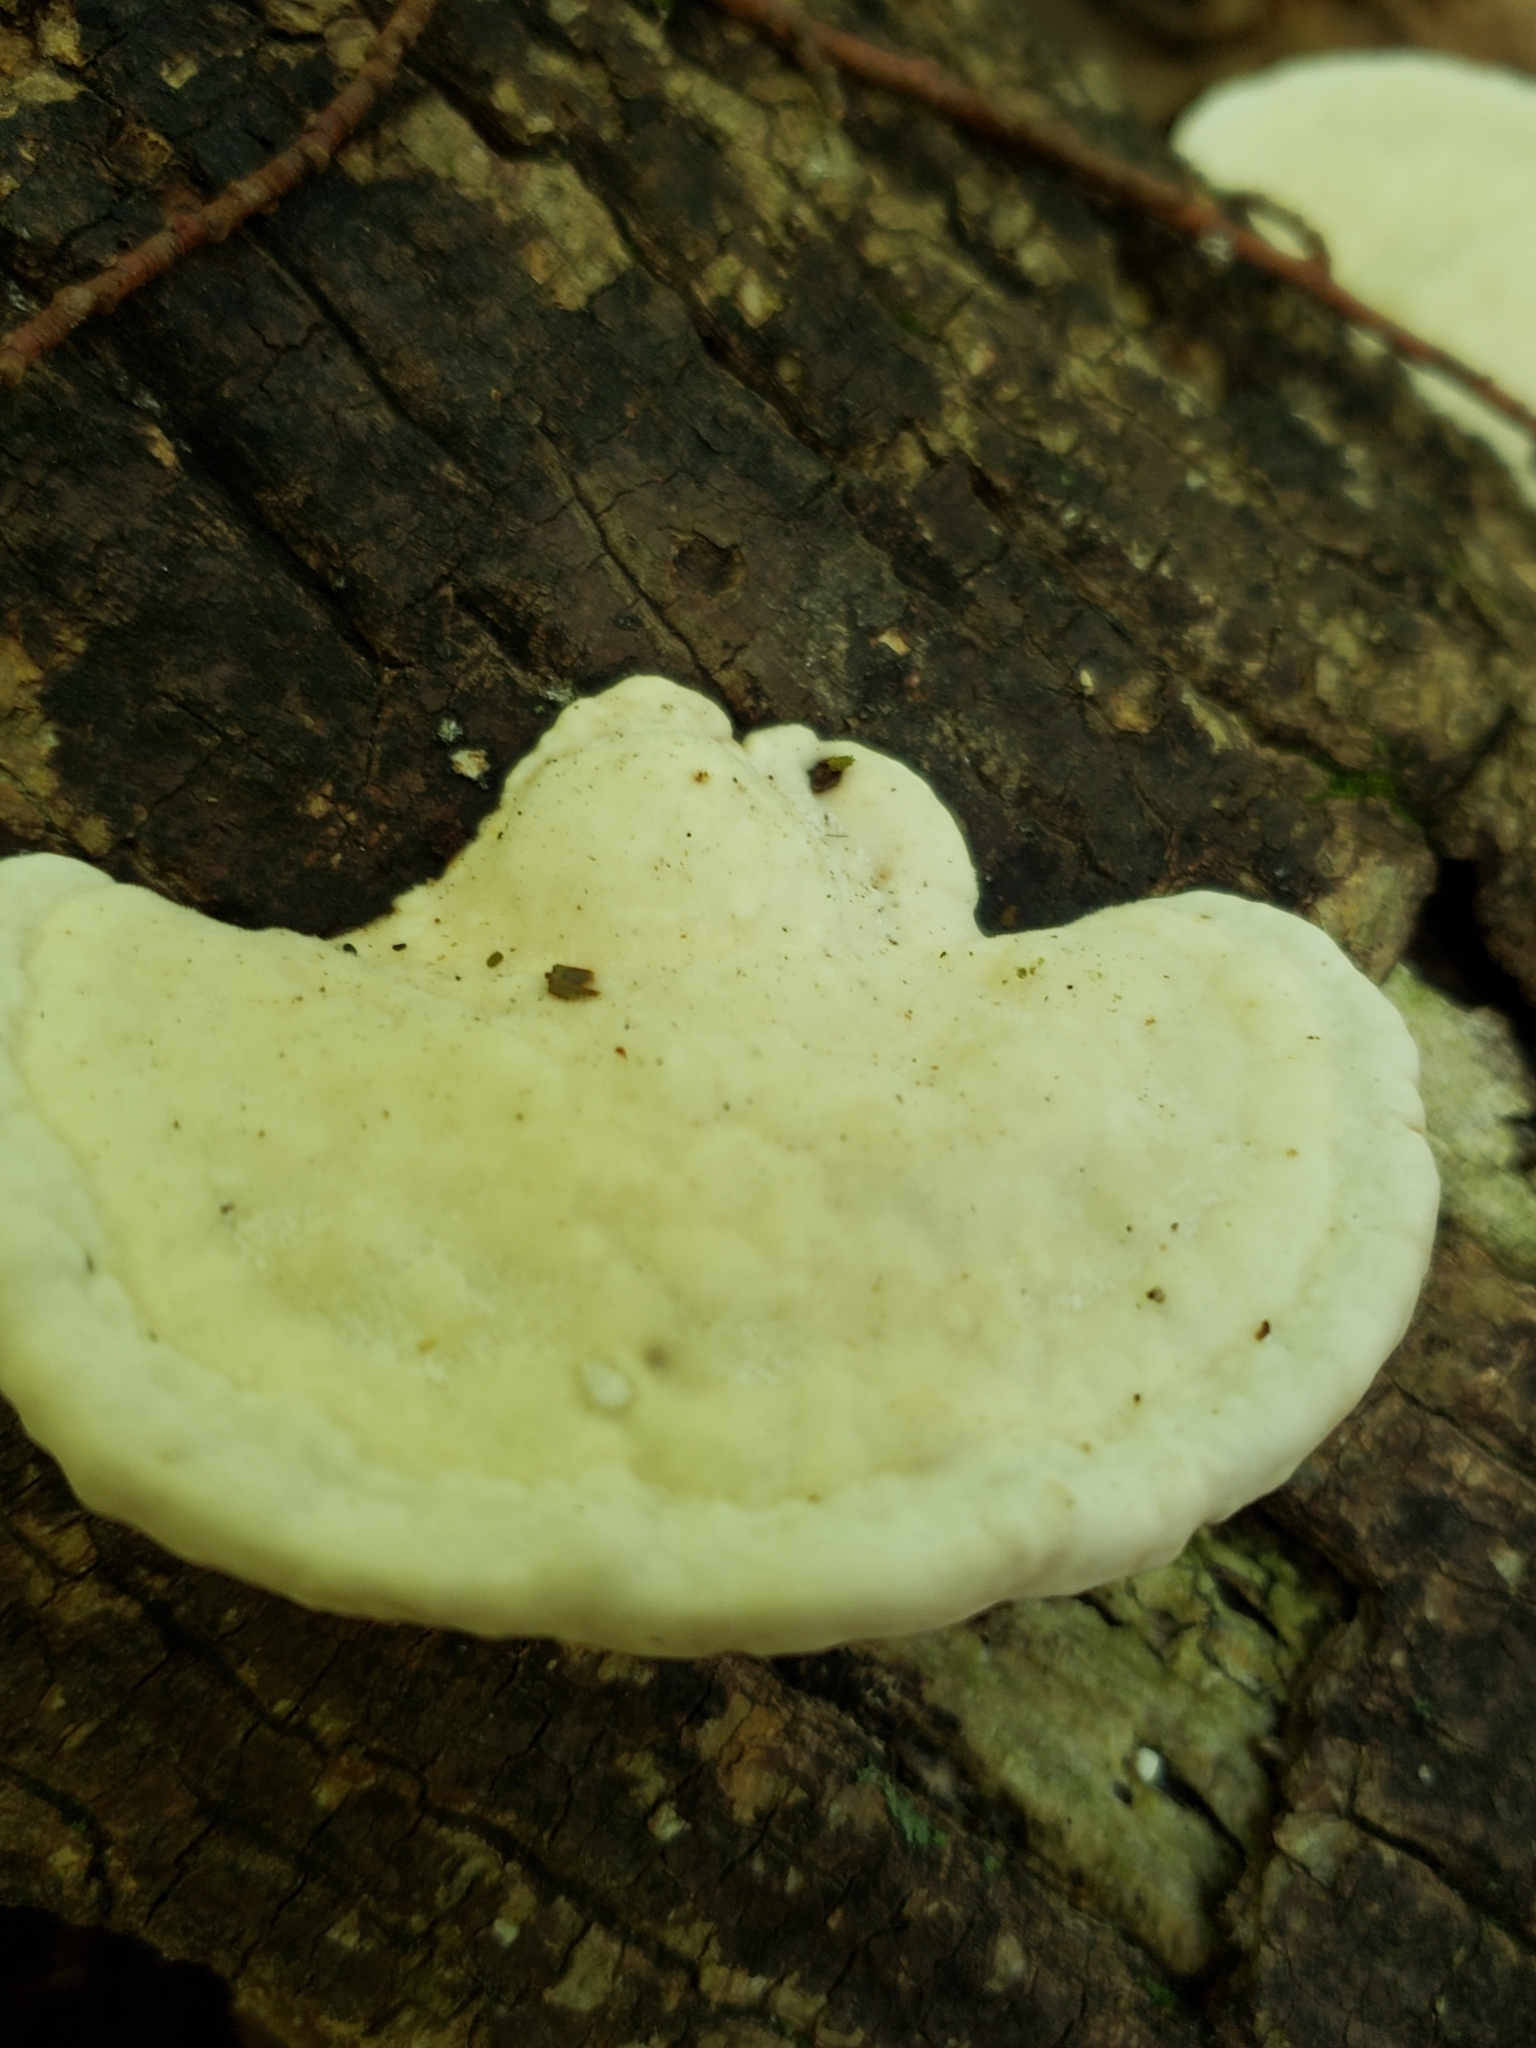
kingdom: Fungi
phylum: Basidiomycota
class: Agaricomycetes
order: Polyporales
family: Polyporaceae
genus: Trametes
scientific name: Trametes gibbosa
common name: Lumpy bracket
